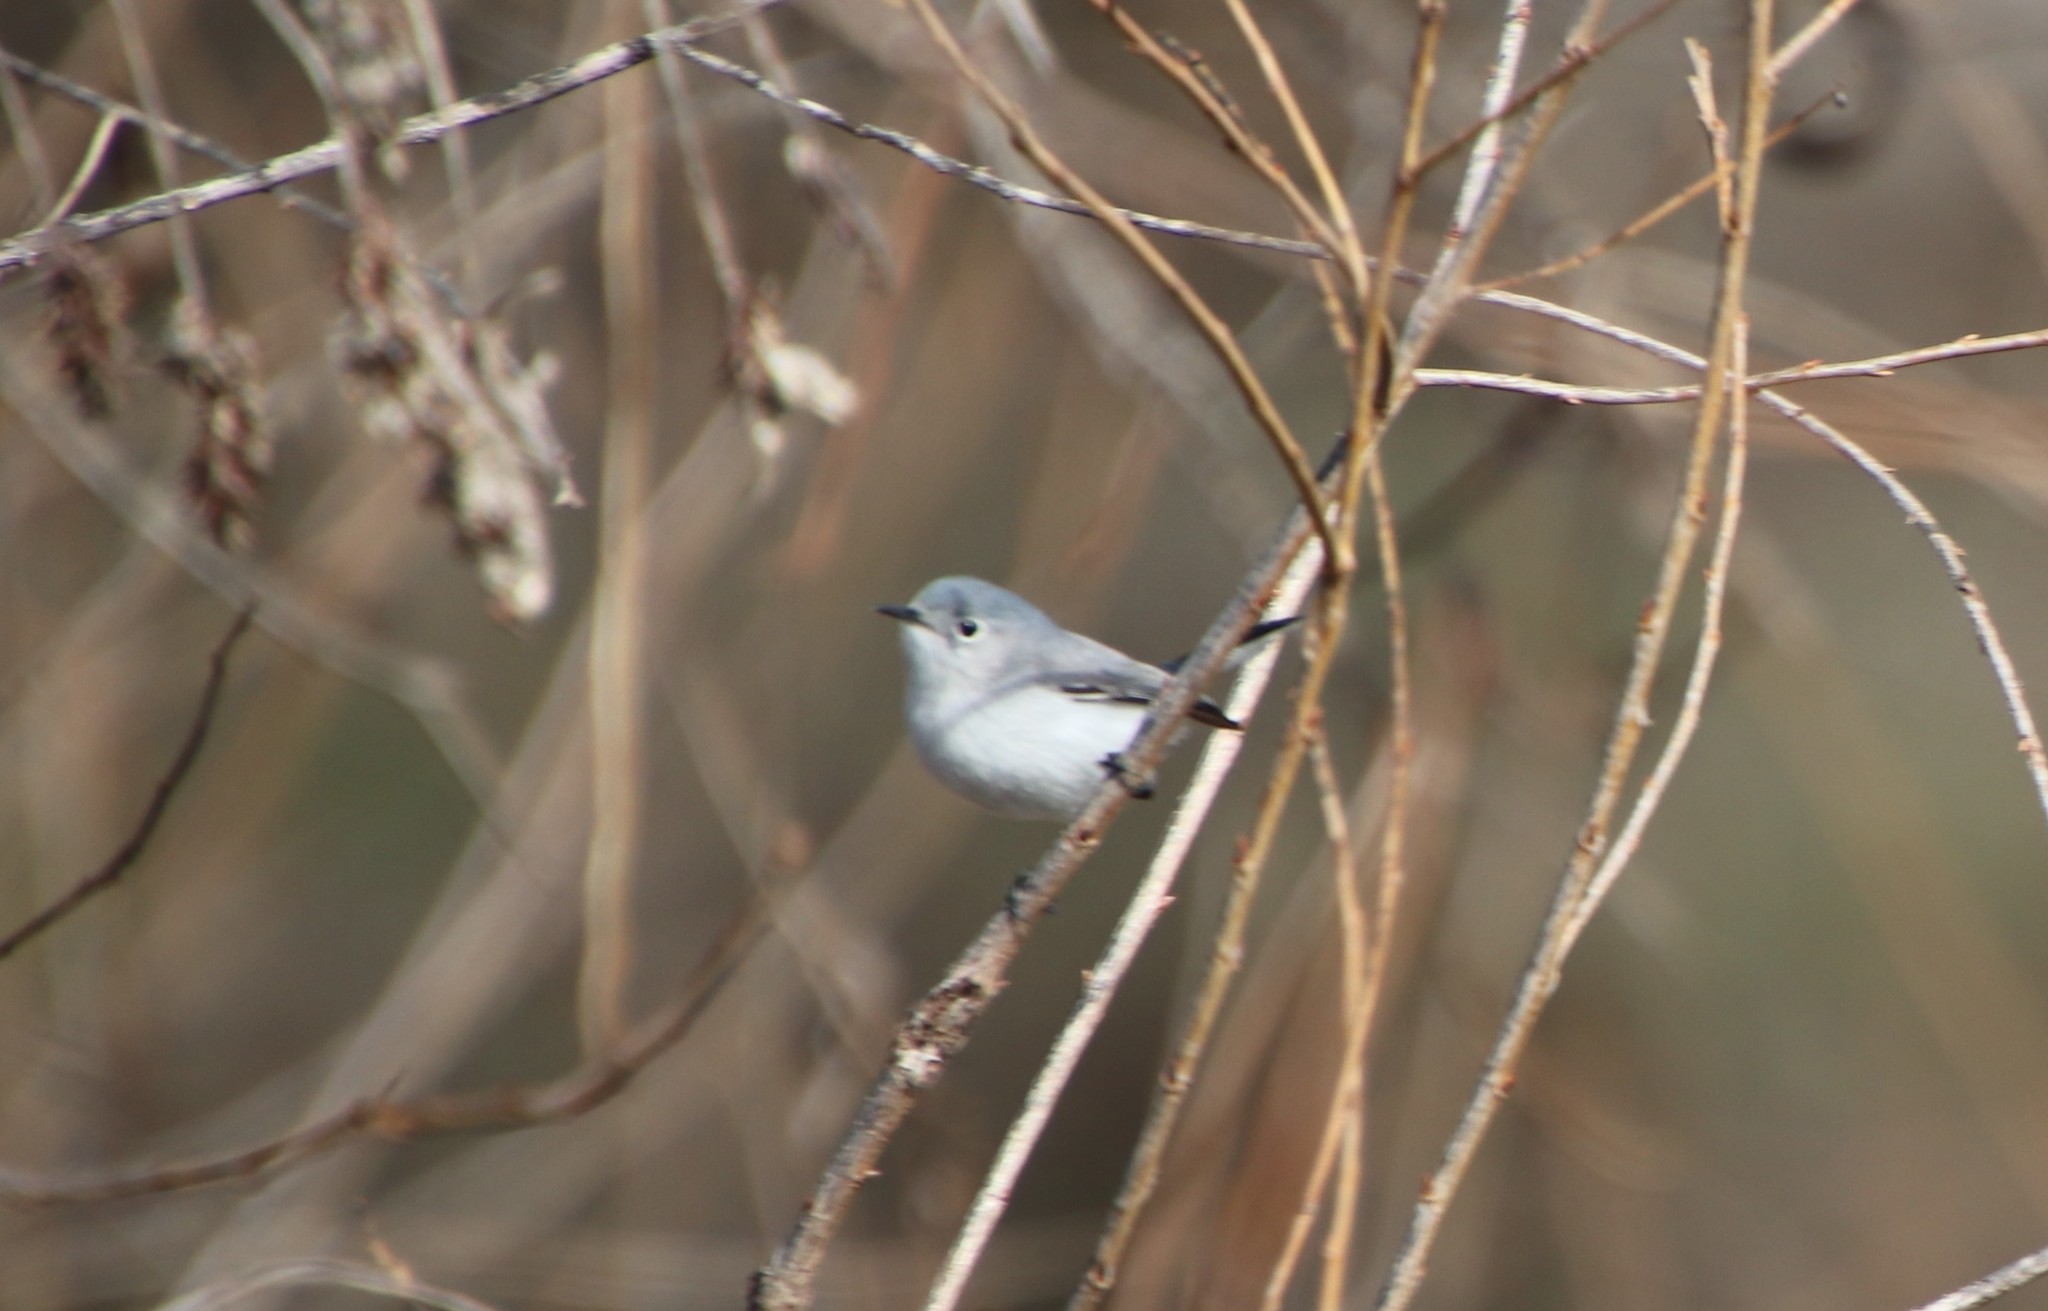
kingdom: Animalia
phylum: Chordata
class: Aves
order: Passeriformes
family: Polioptilidae
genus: Polioptila
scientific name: Polioptila caerulea
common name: Blue-gray gnatcatcher
